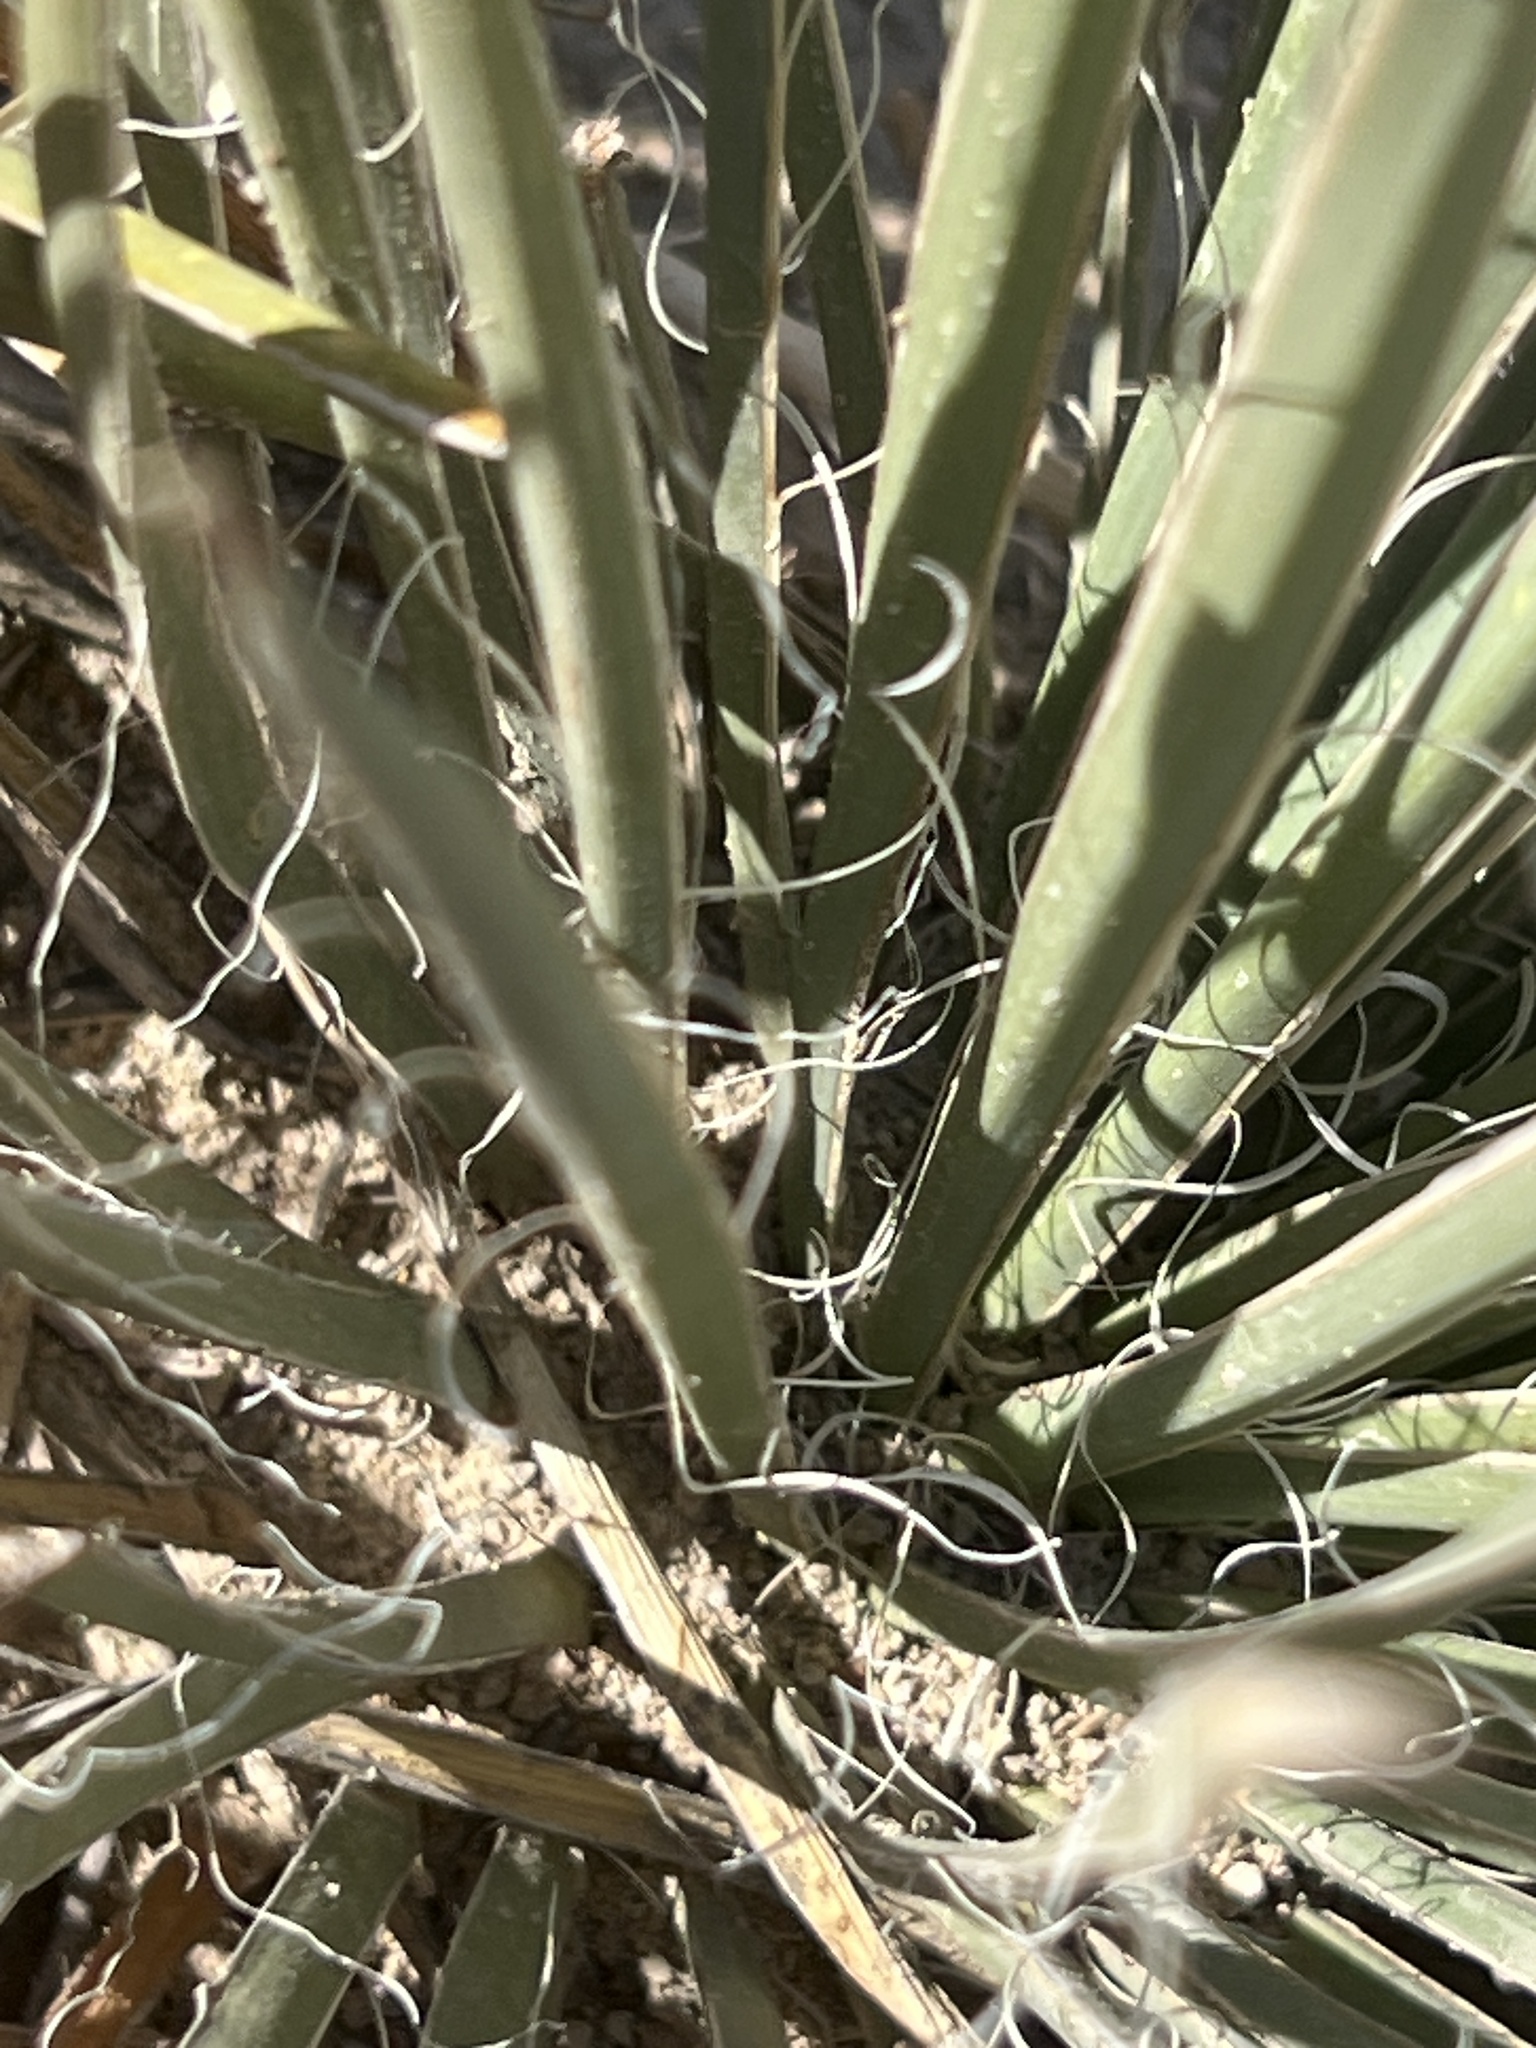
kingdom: Plantae
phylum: Tracheophyta
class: Liliopsida
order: Asparagales
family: Asparagaceae
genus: Yucca
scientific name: Yucca glauca
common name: Great plains yucca
